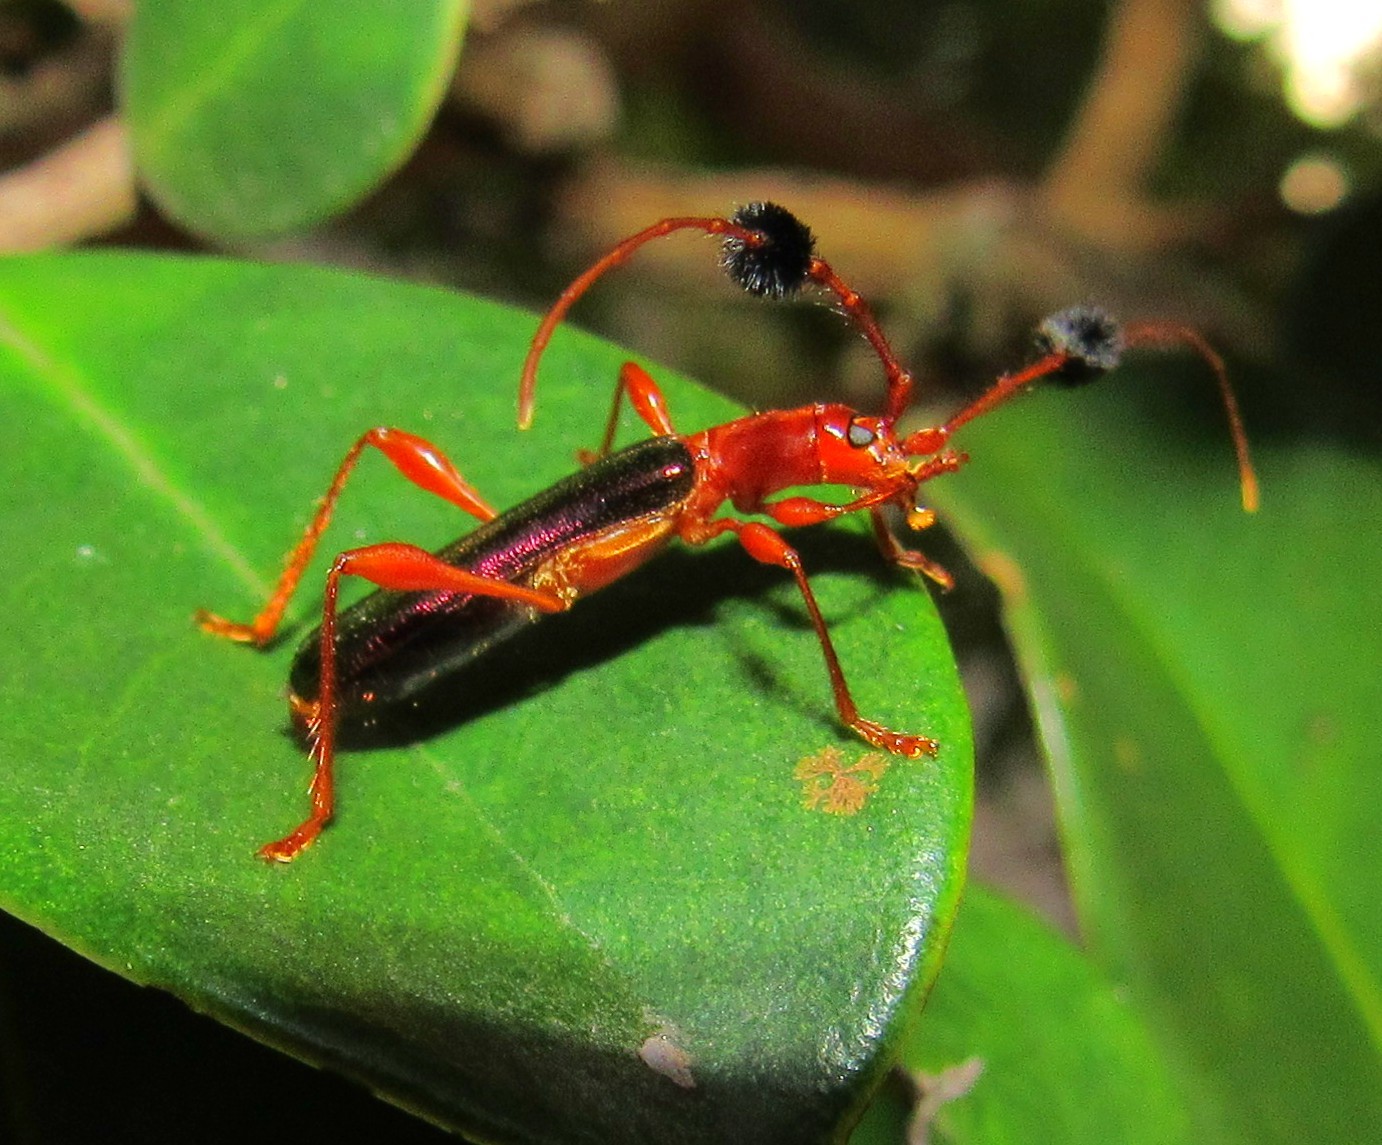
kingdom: Animalia
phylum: Arthropoda
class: Insecta
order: Coleoptera
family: Cerambycidae
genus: Unxia
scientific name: Unxia gracilior
